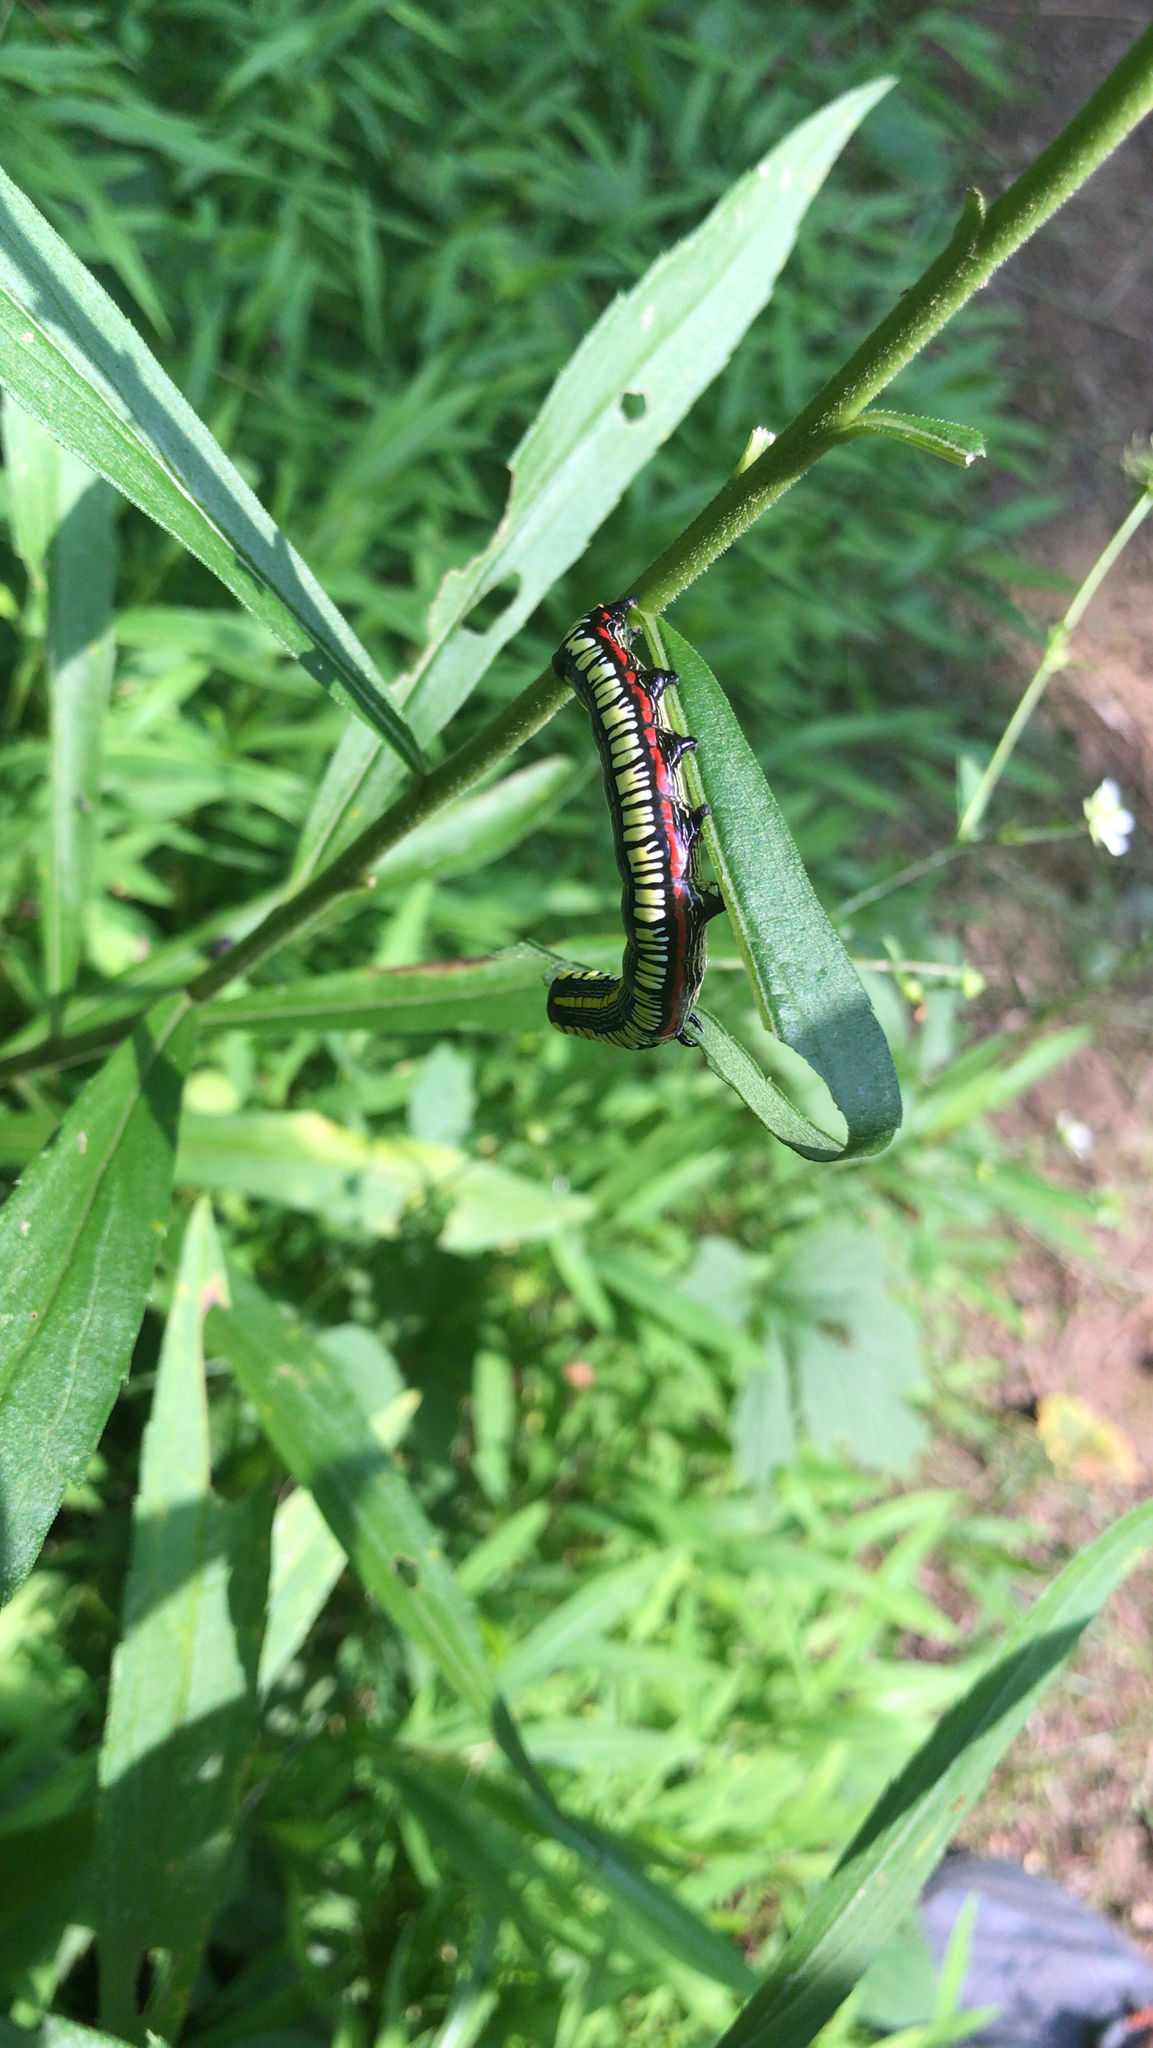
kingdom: Animalia
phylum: Arthropoda
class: Insecta
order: Lepidoptera
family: Noctuidae
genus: Cucullia
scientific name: Cucullia convexipennis
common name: Brown-hooded owlet
